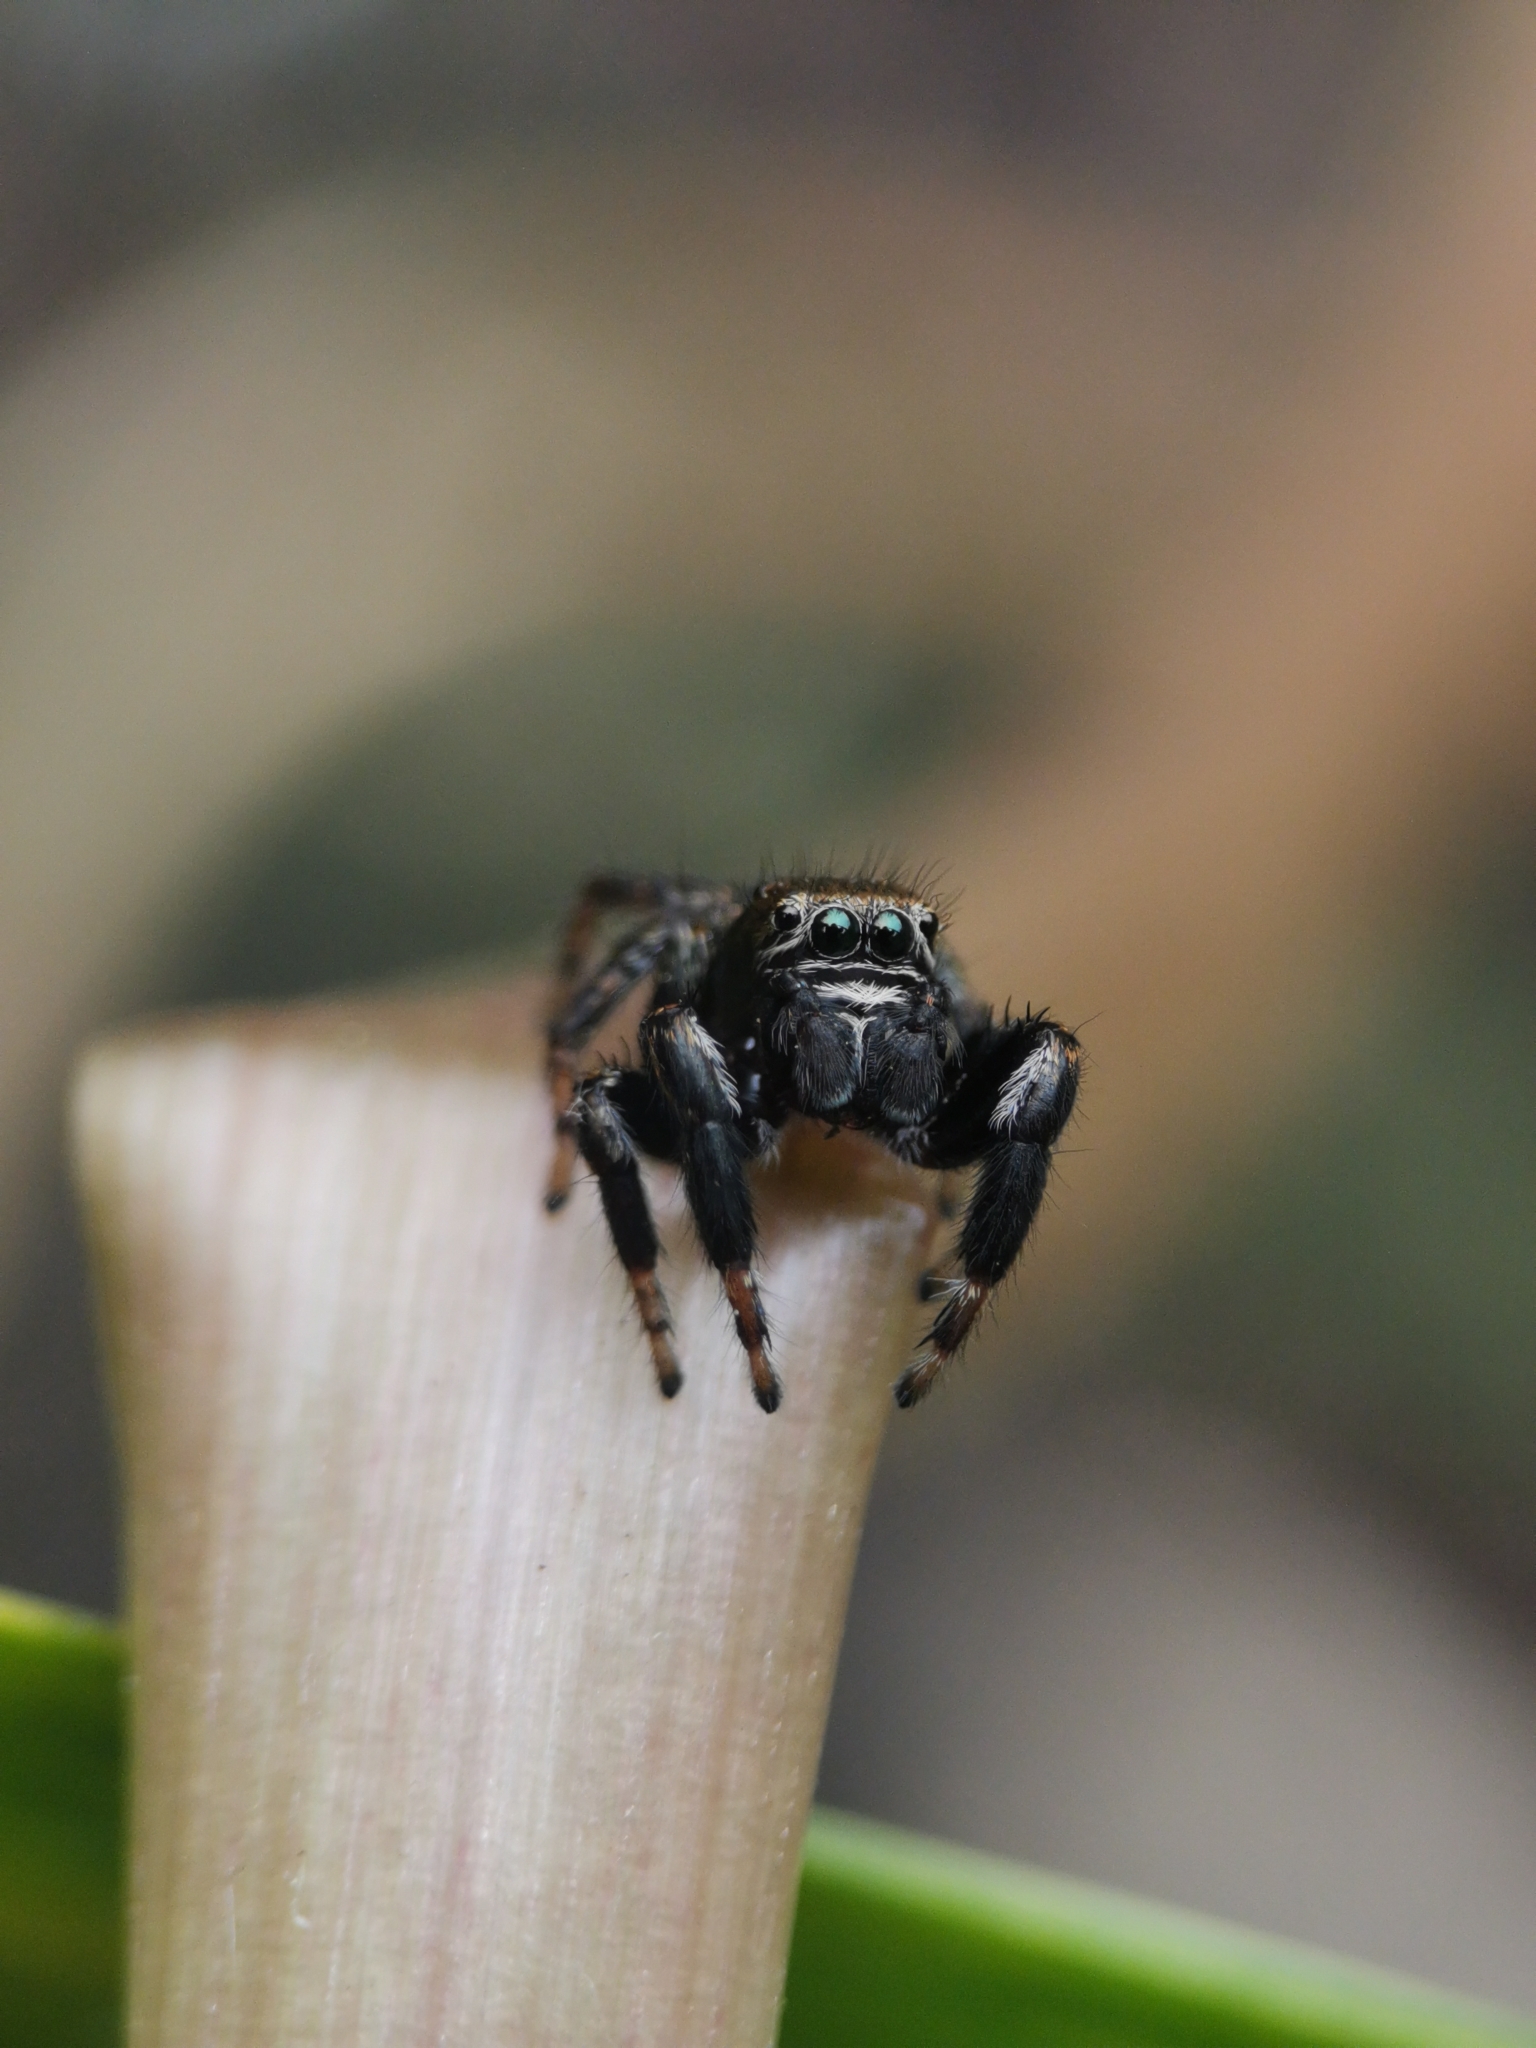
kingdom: Animalia
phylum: Arthropoda
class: Arachnida
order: Araneae
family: Salticidae
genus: Evarcha
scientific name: Evarcha arcuata
